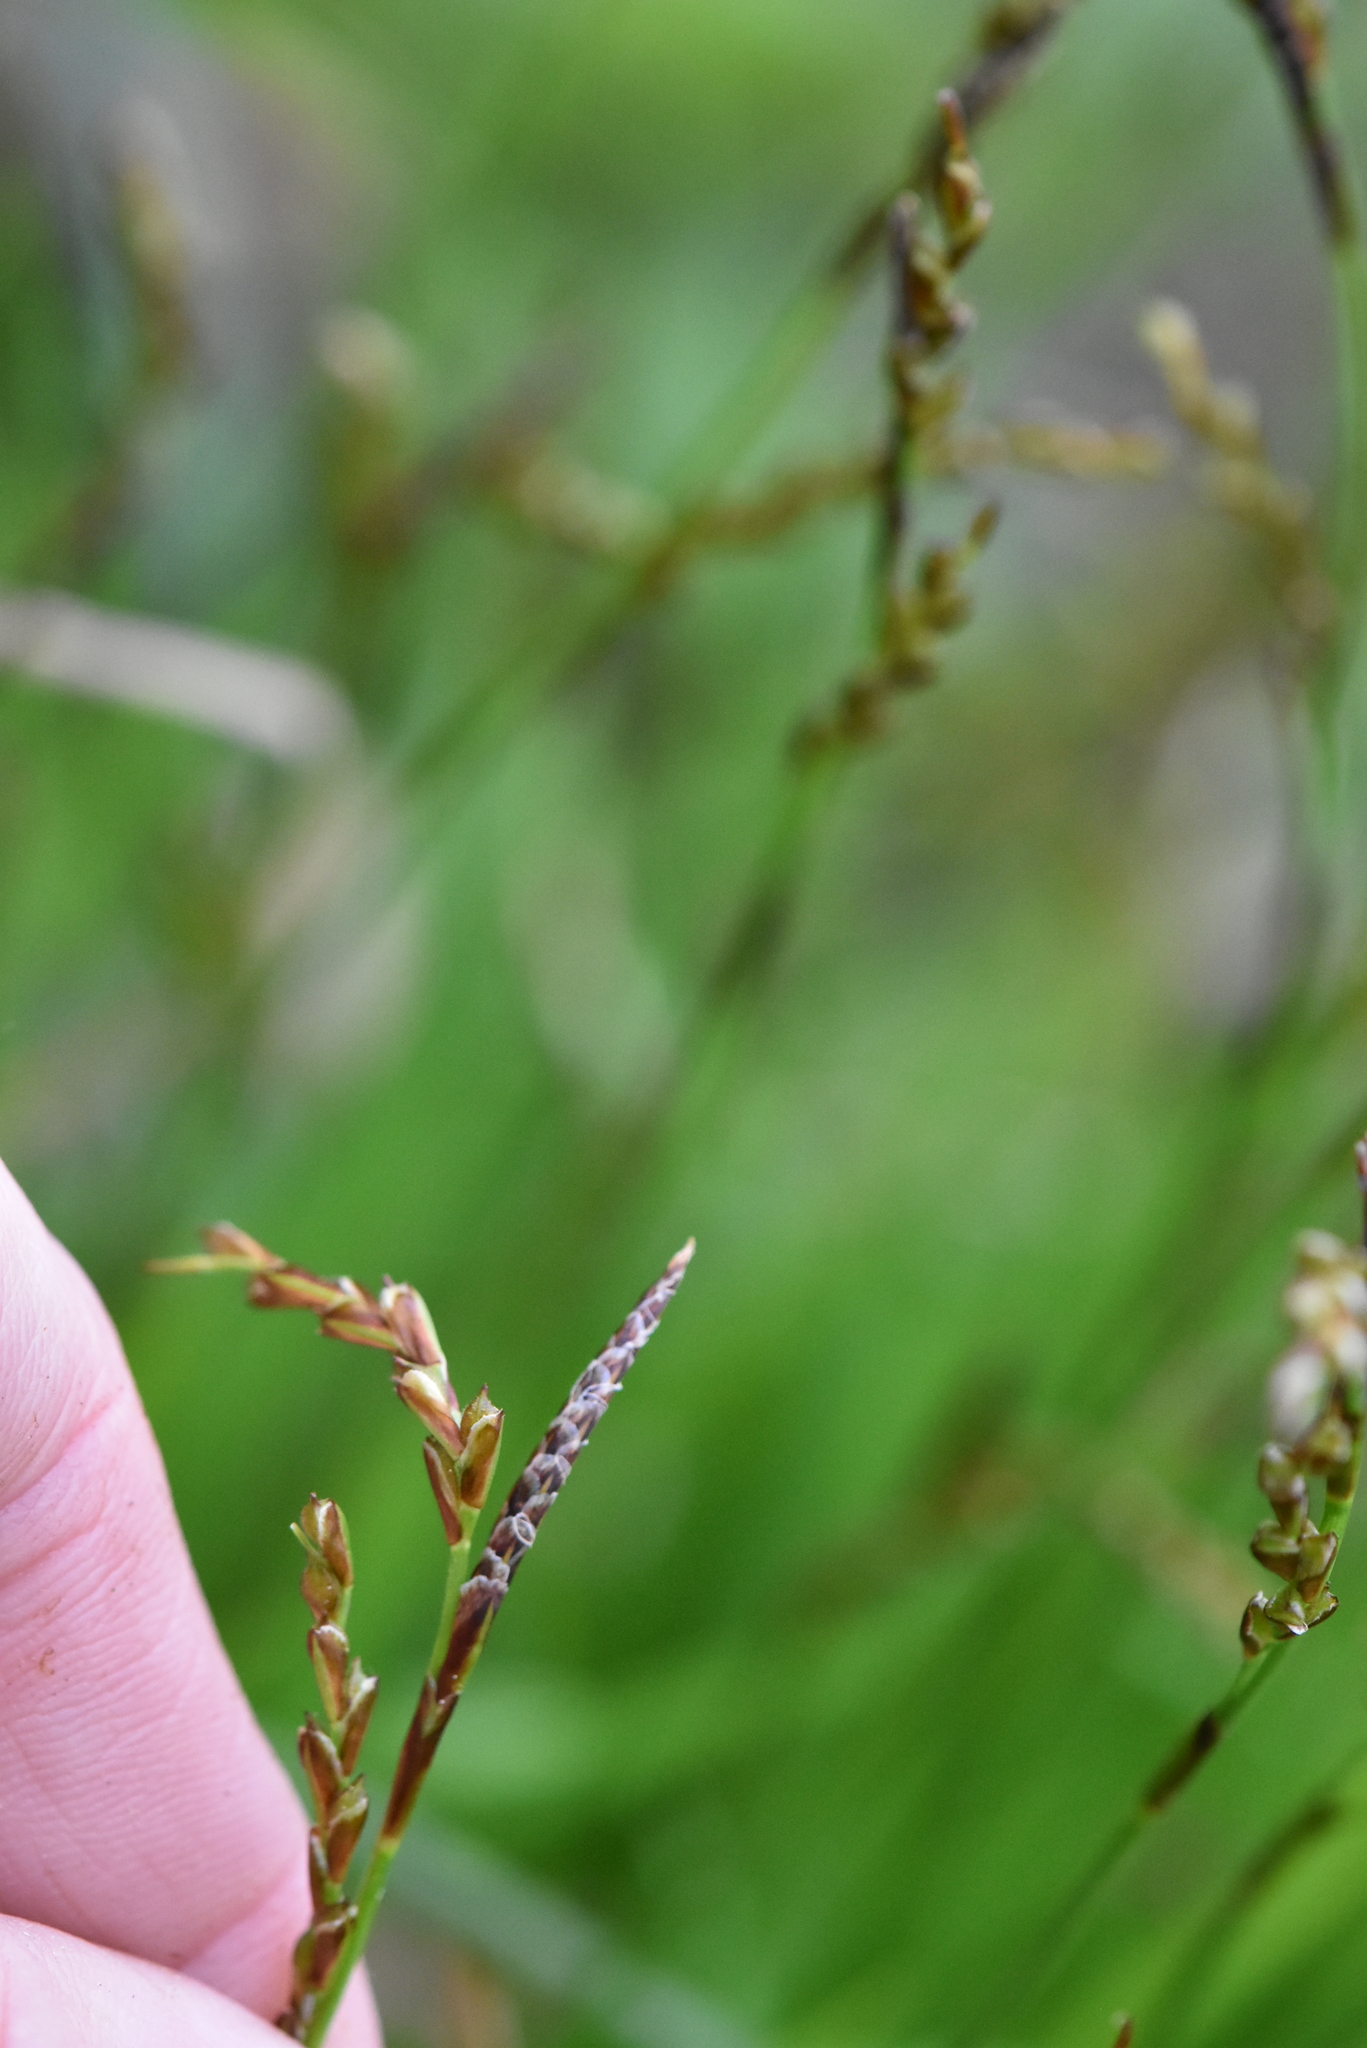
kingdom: Plantae
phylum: Tracheophyta
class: Liliopsida
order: Poales
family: Cyperaceae
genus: Carex
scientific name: Carex digitata
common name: Fingered sedge
